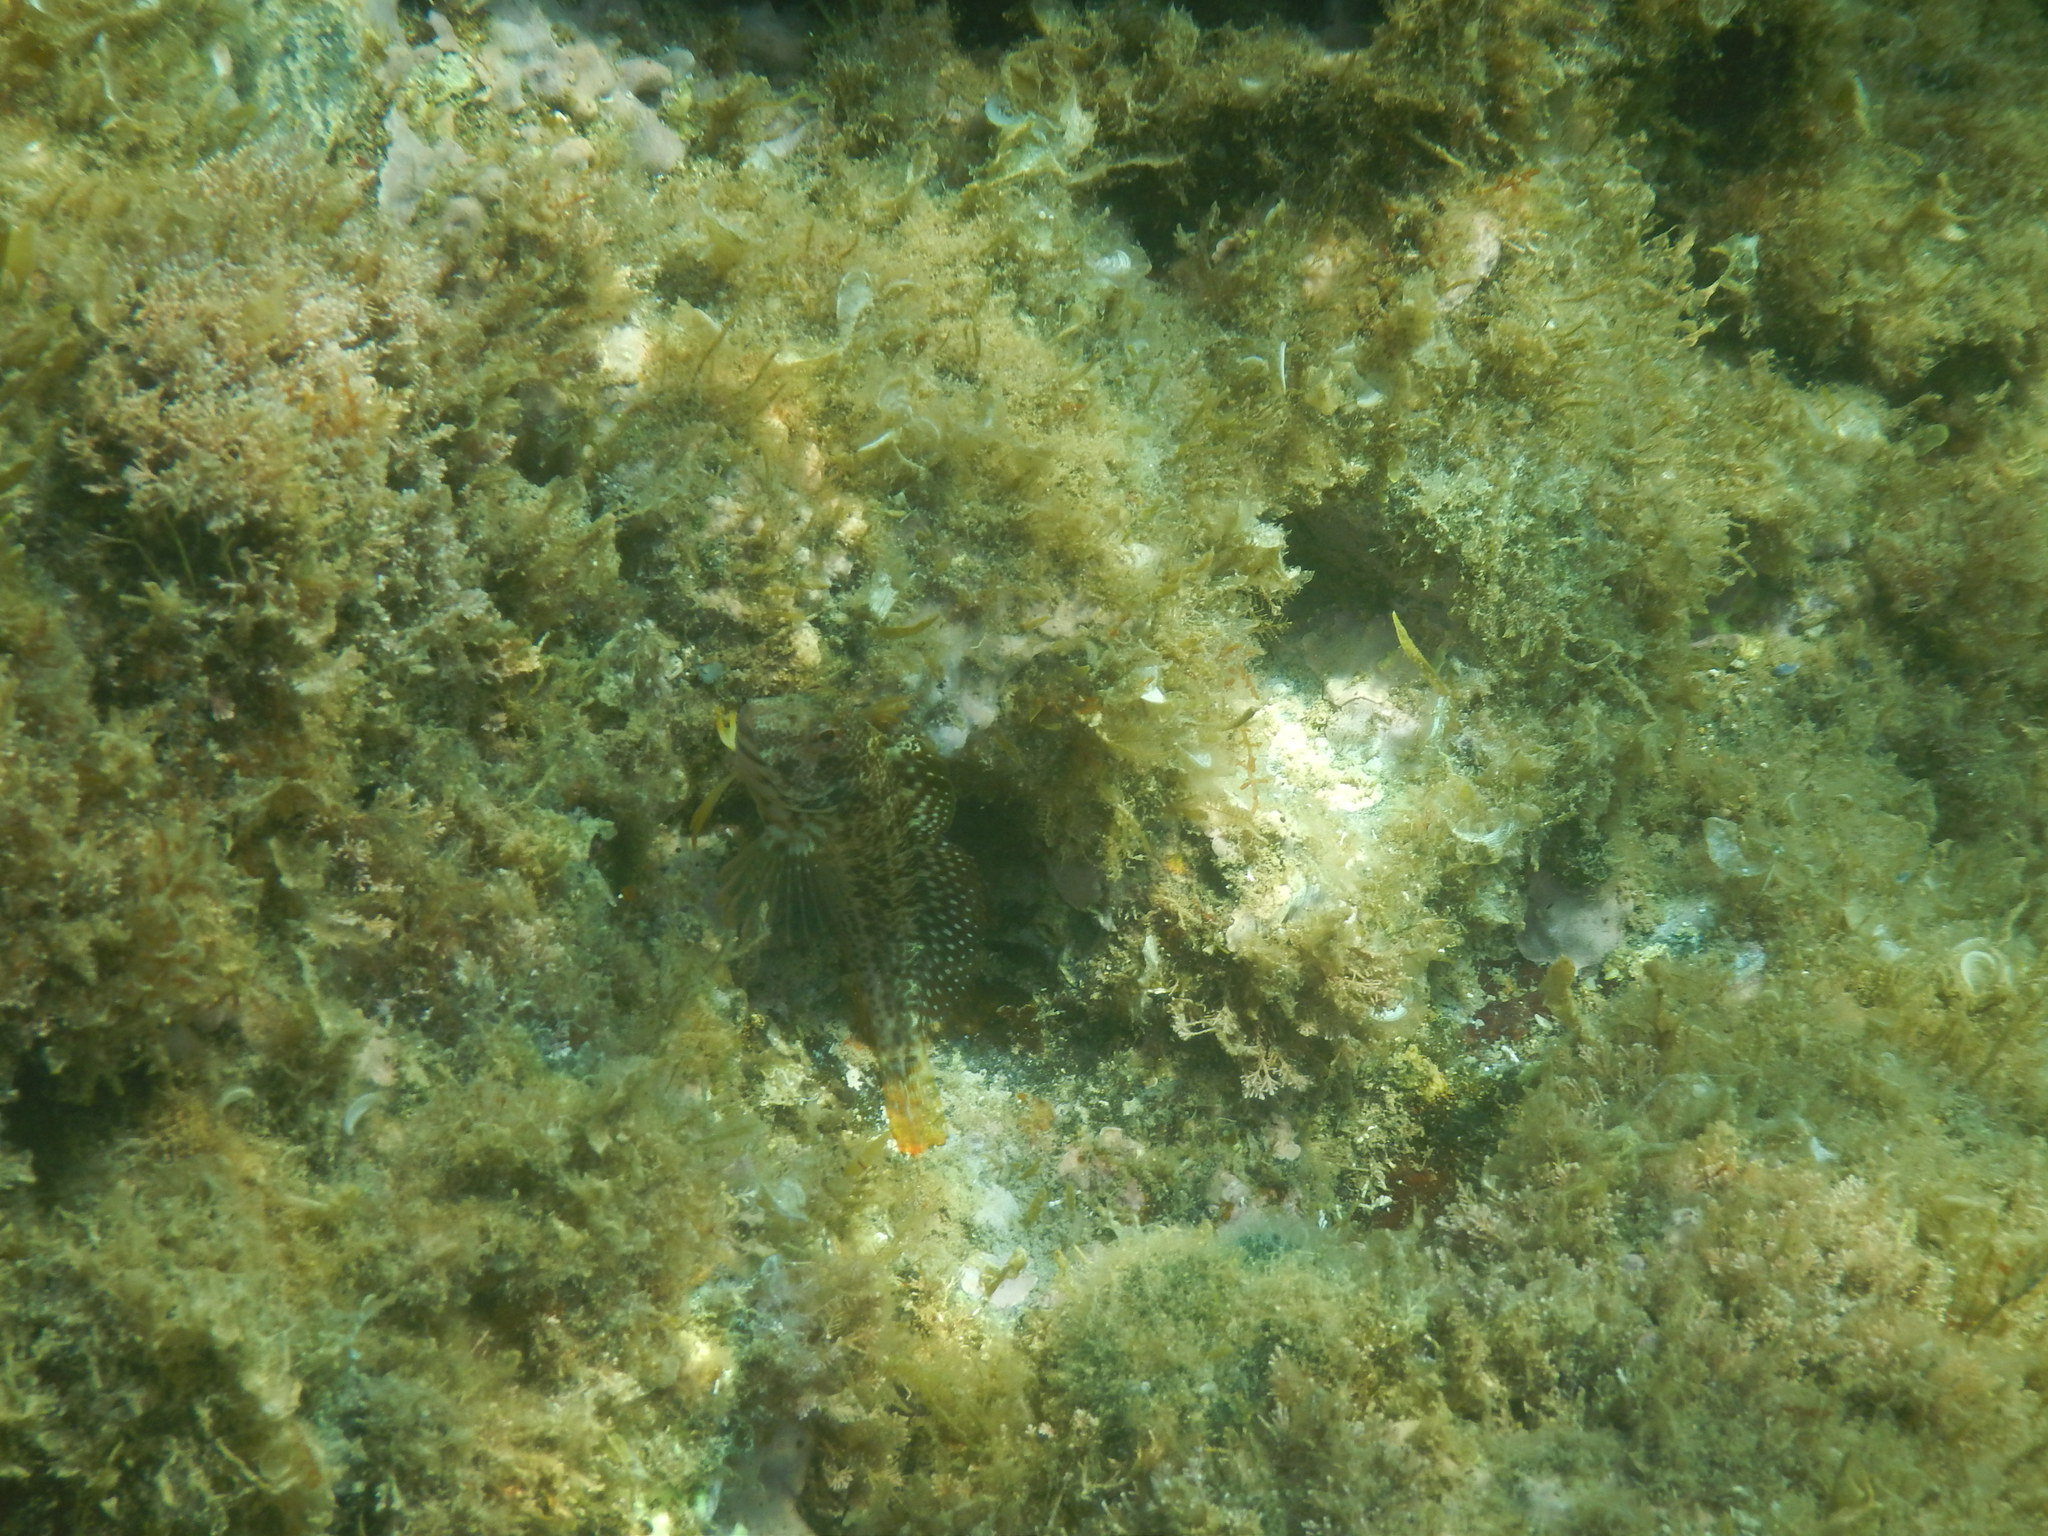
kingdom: Animalia
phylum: Chordata
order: Perciformes
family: Blenniidae
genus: Parablennius
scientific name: Parablennius pilicornis
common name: Ringneck blenny
